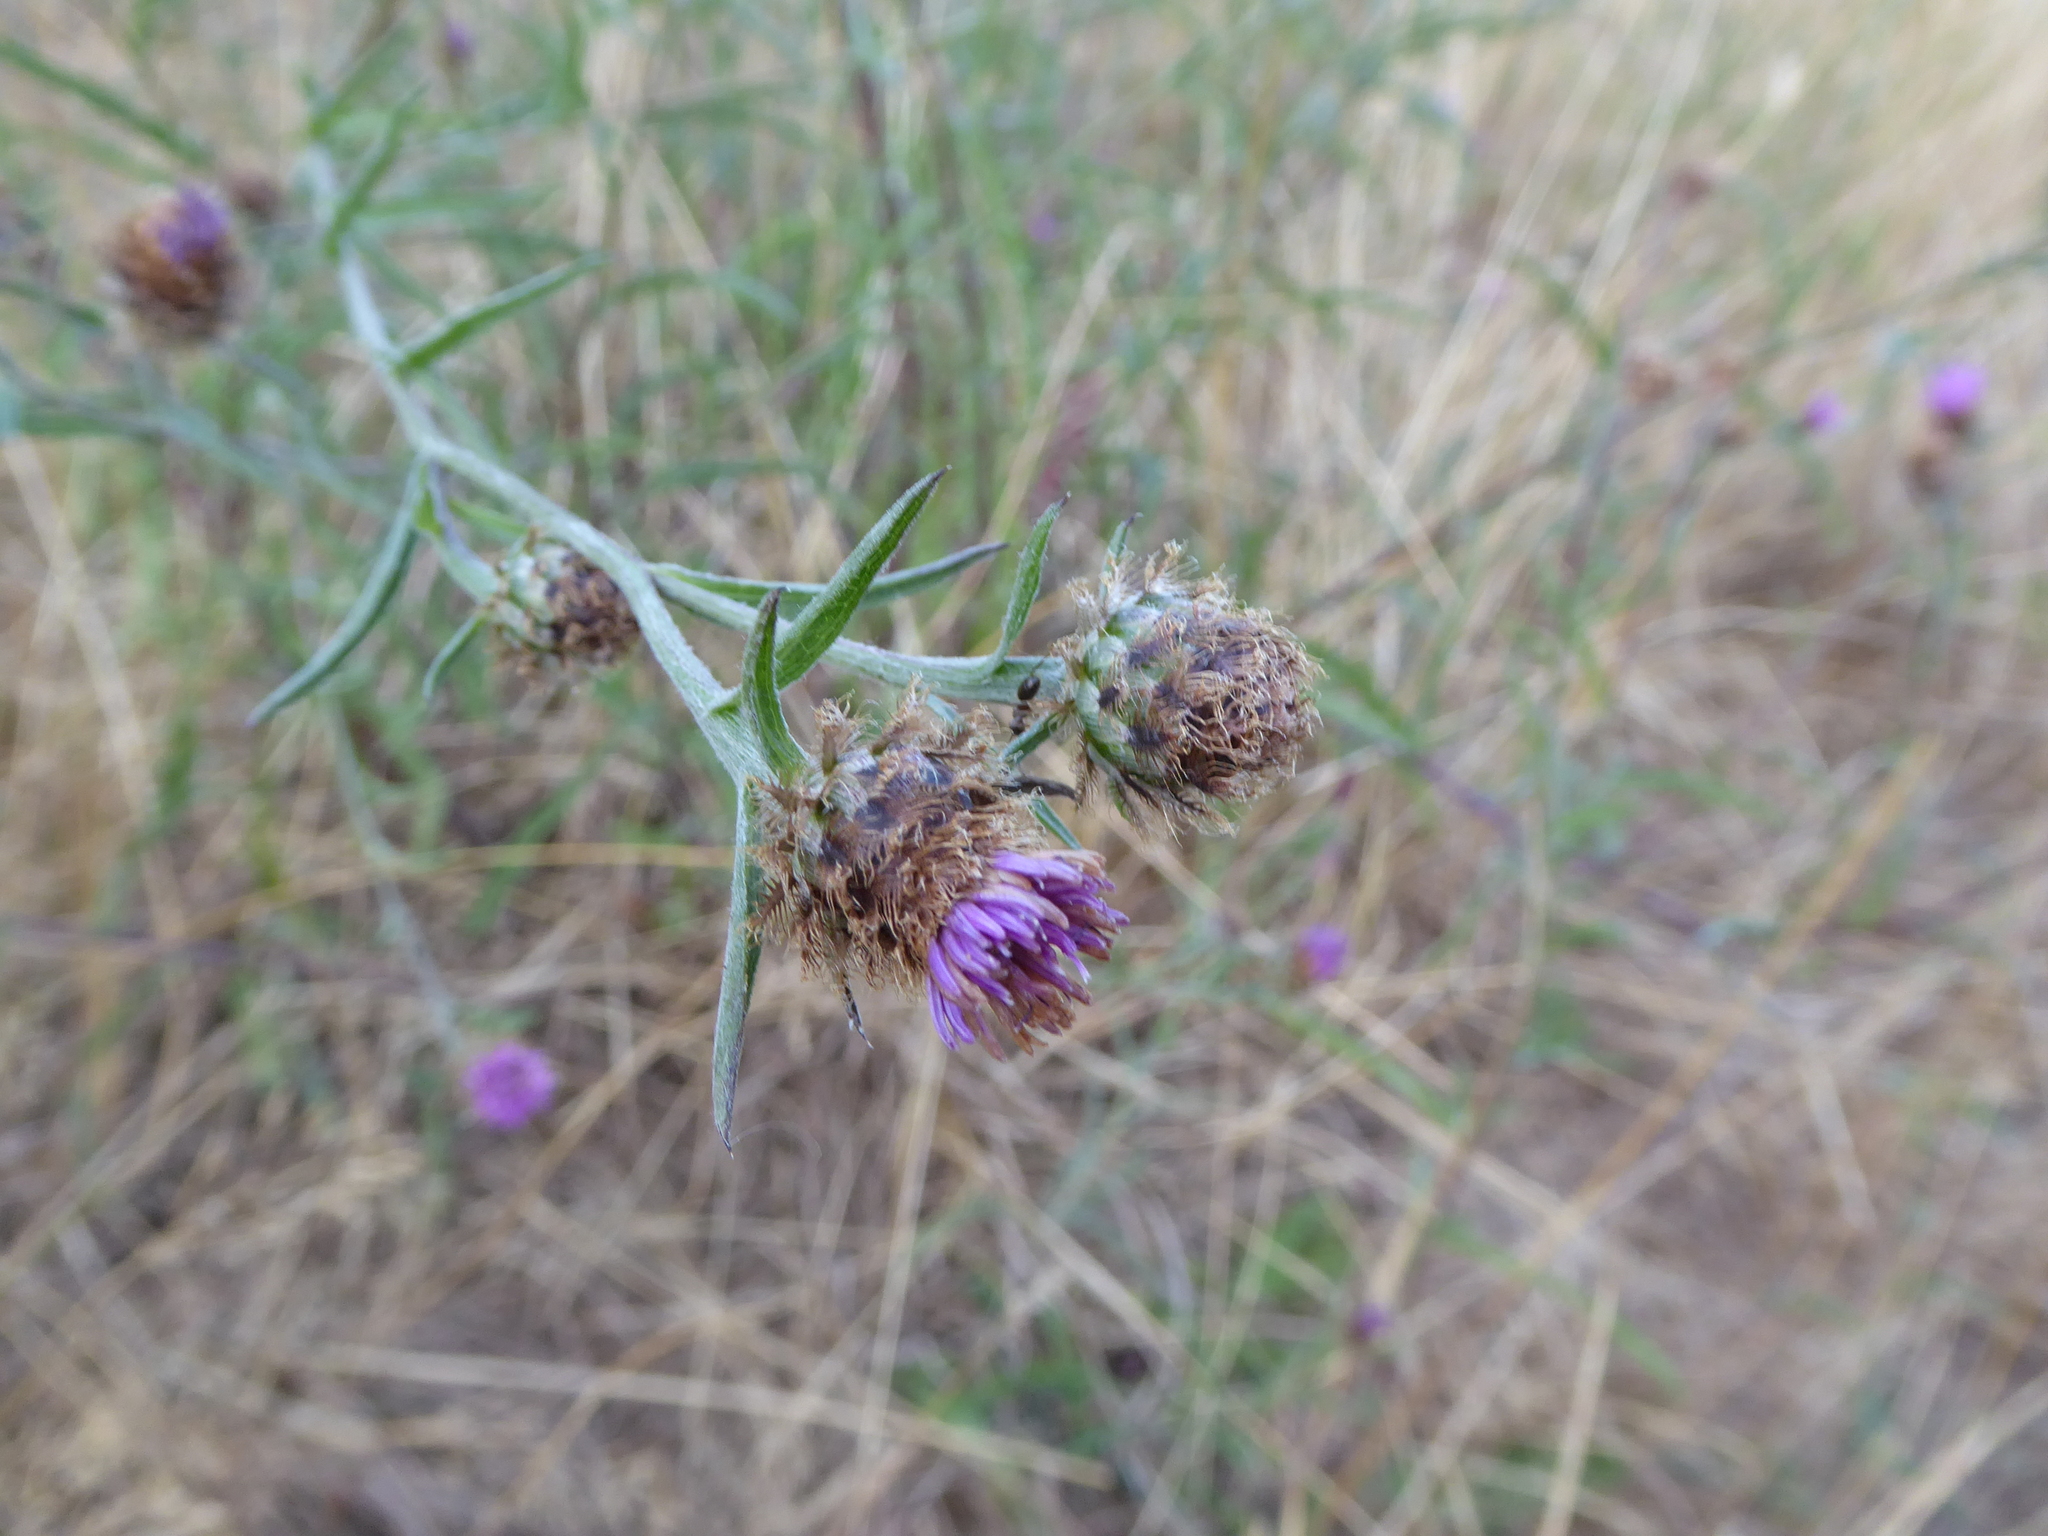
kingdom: Plantae
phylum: Tracheophyta
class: Magnoliopsida
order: Asterales
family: Asteraceae
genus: Centaurea
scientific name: Centaurea
